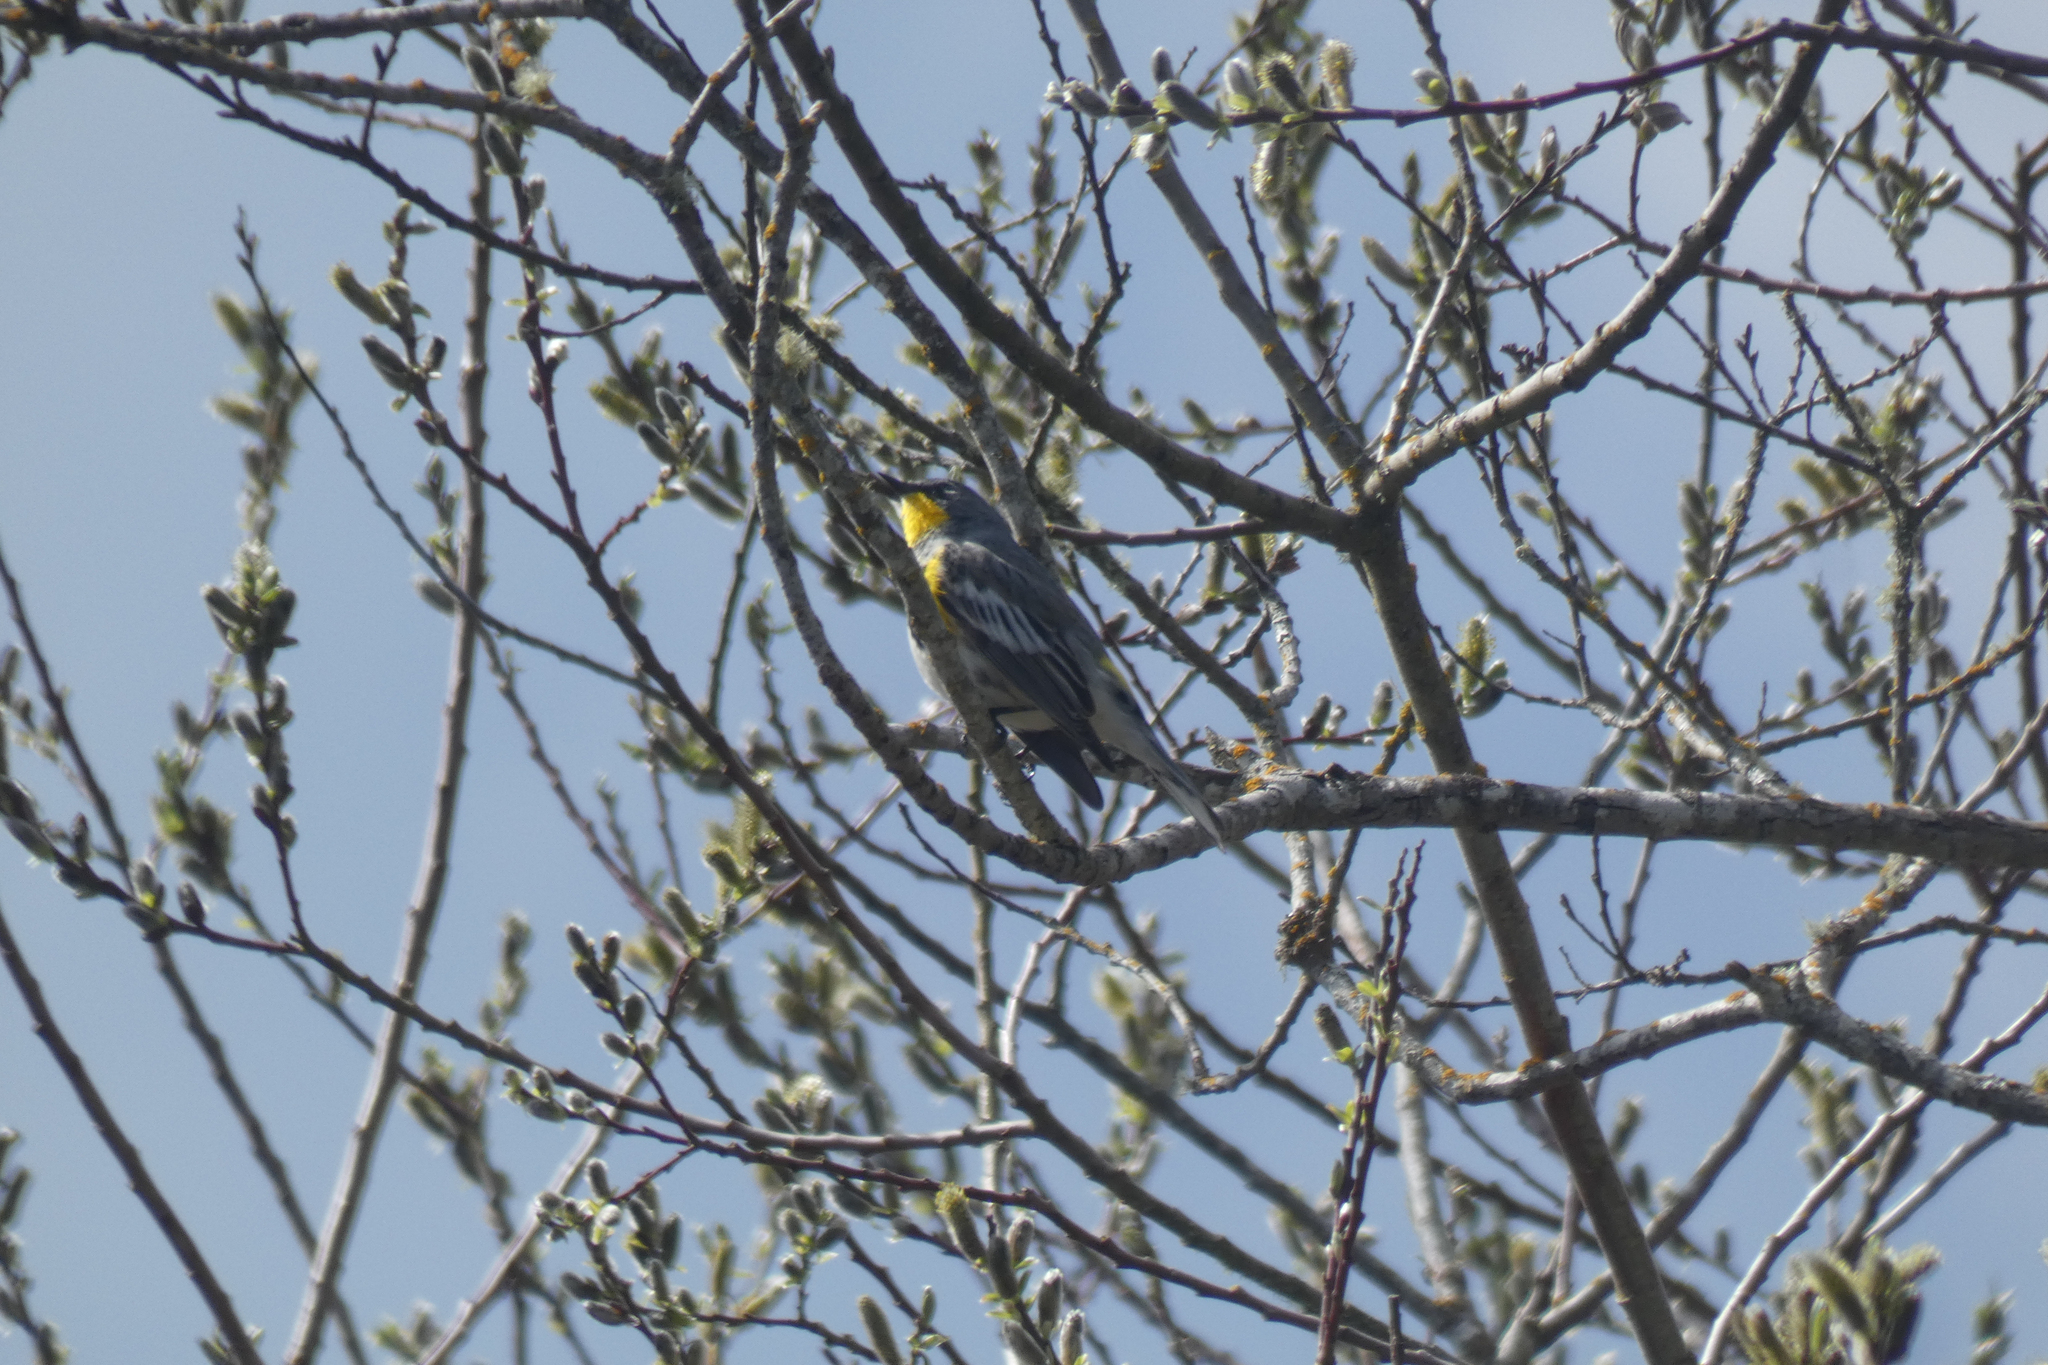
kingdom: Animalia
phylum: Chordata
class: Aves
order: Passeriformes
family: Parulidae
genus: Setophaga
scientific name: Setophaga coronata
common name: Myrtle warbler
